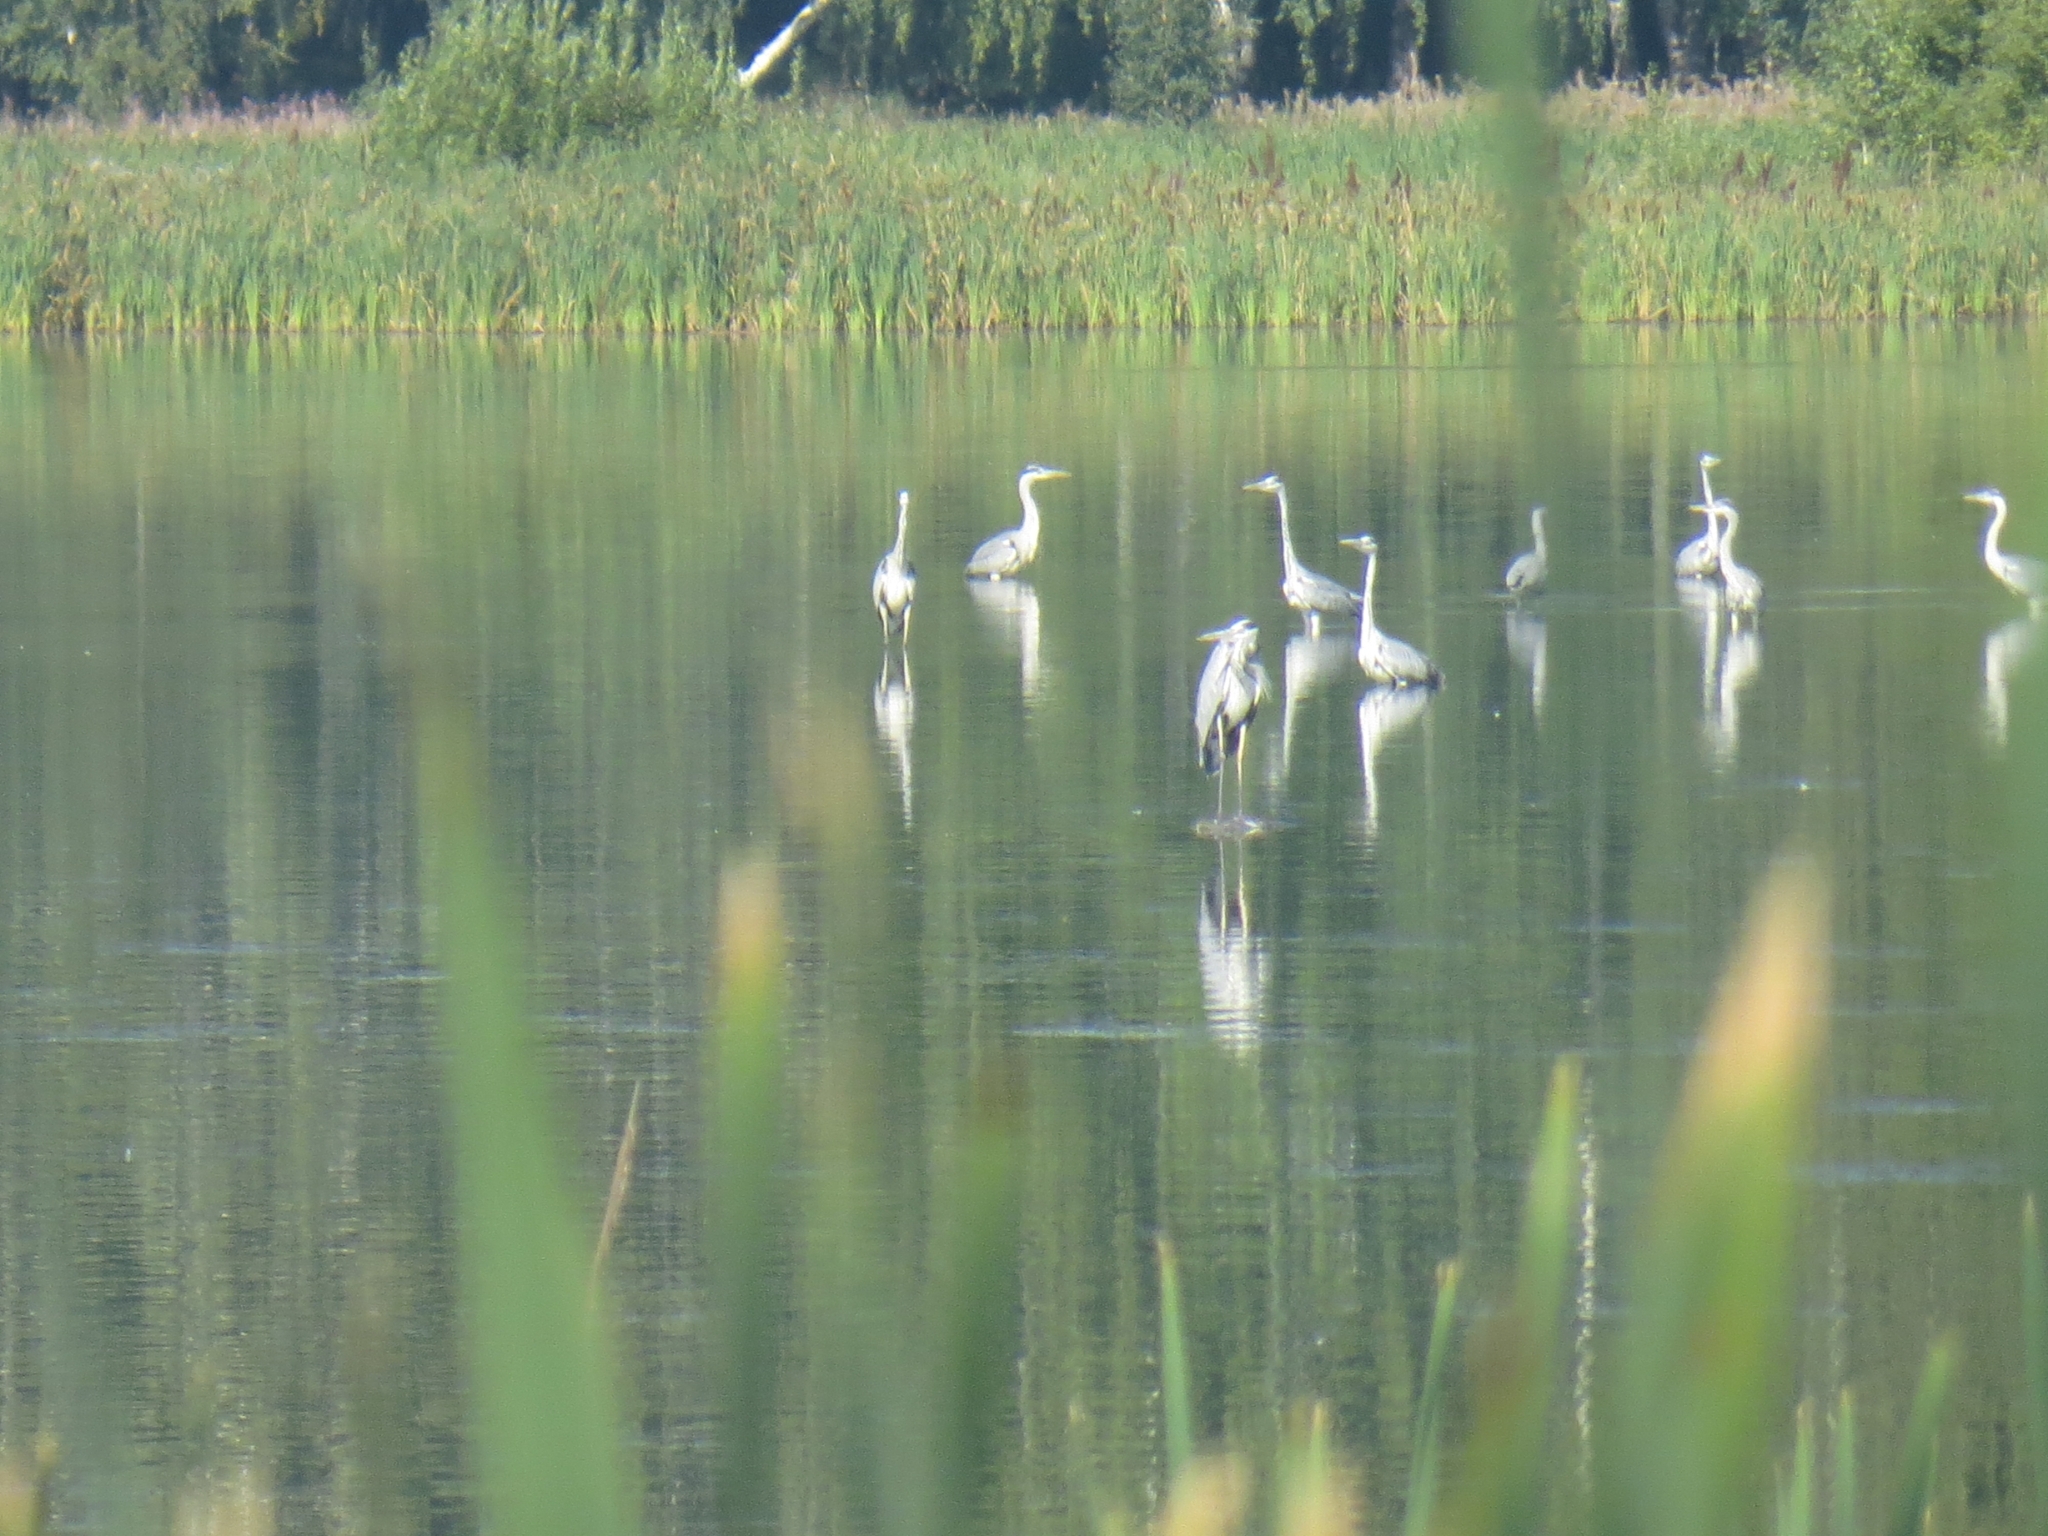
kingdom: Animalia
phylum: Chordata
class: Aves
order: Pelecaniformes
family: Ardeidae
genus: Ardea
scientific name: Ardea cinerea
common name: Grey heron
